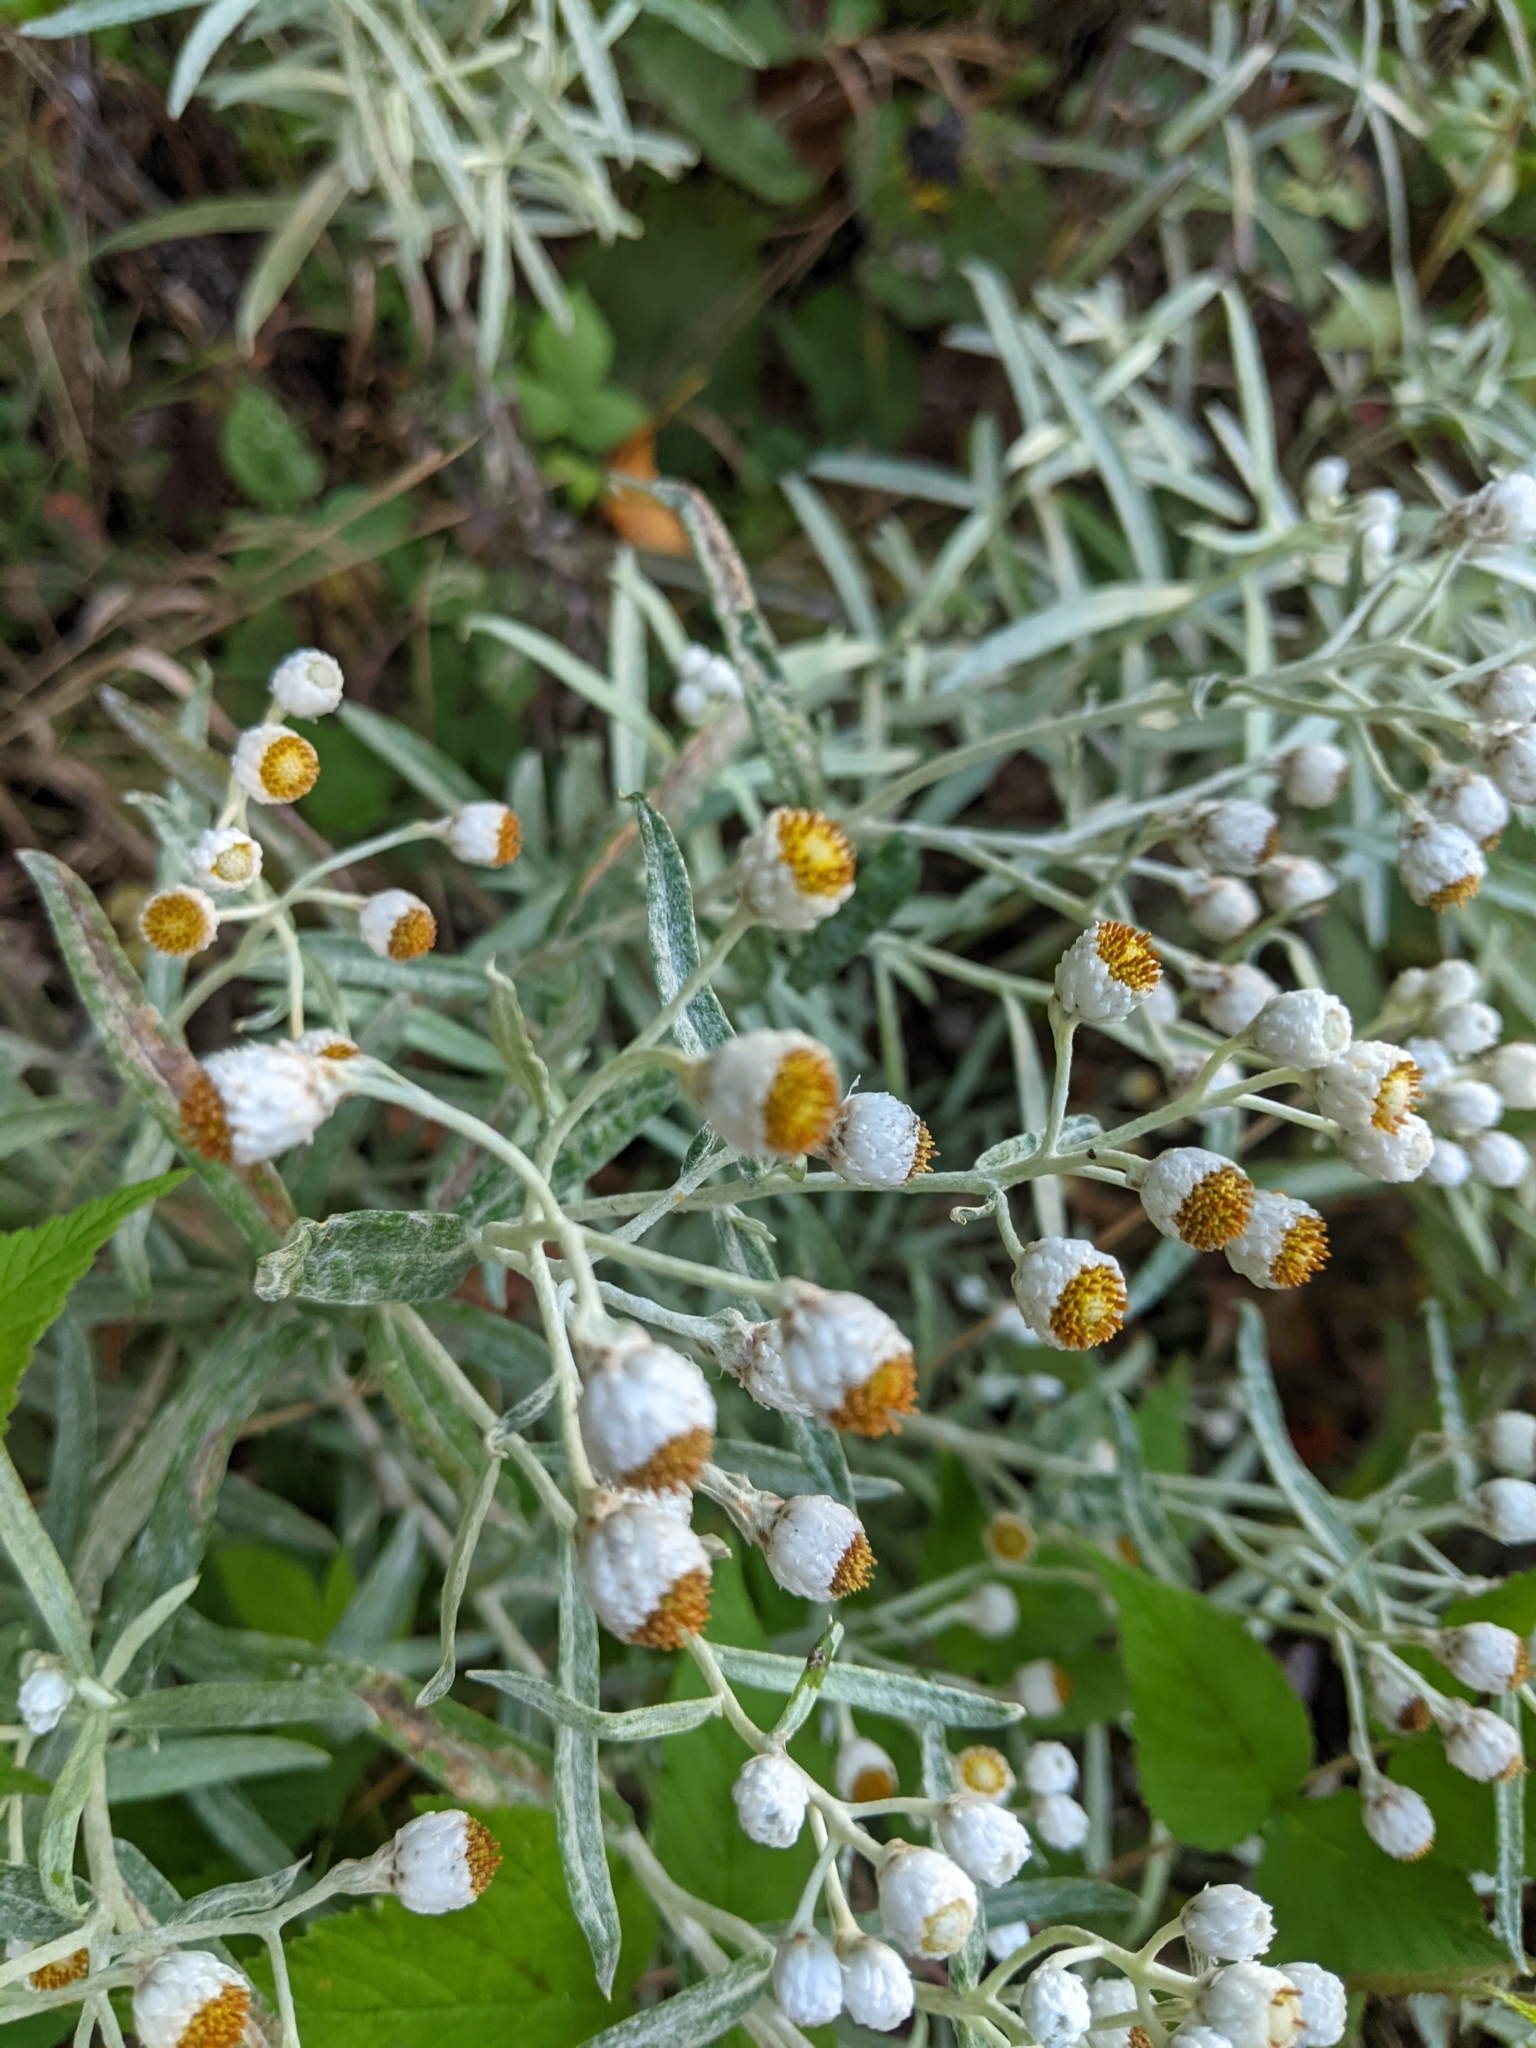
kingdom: Plantae
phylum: Tracheophyta
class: Magnoliopsida
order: Asterales
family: Asteraceae
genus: Anaphalis
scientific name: Anaphalis margaritacea
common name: Pearly everlasting
